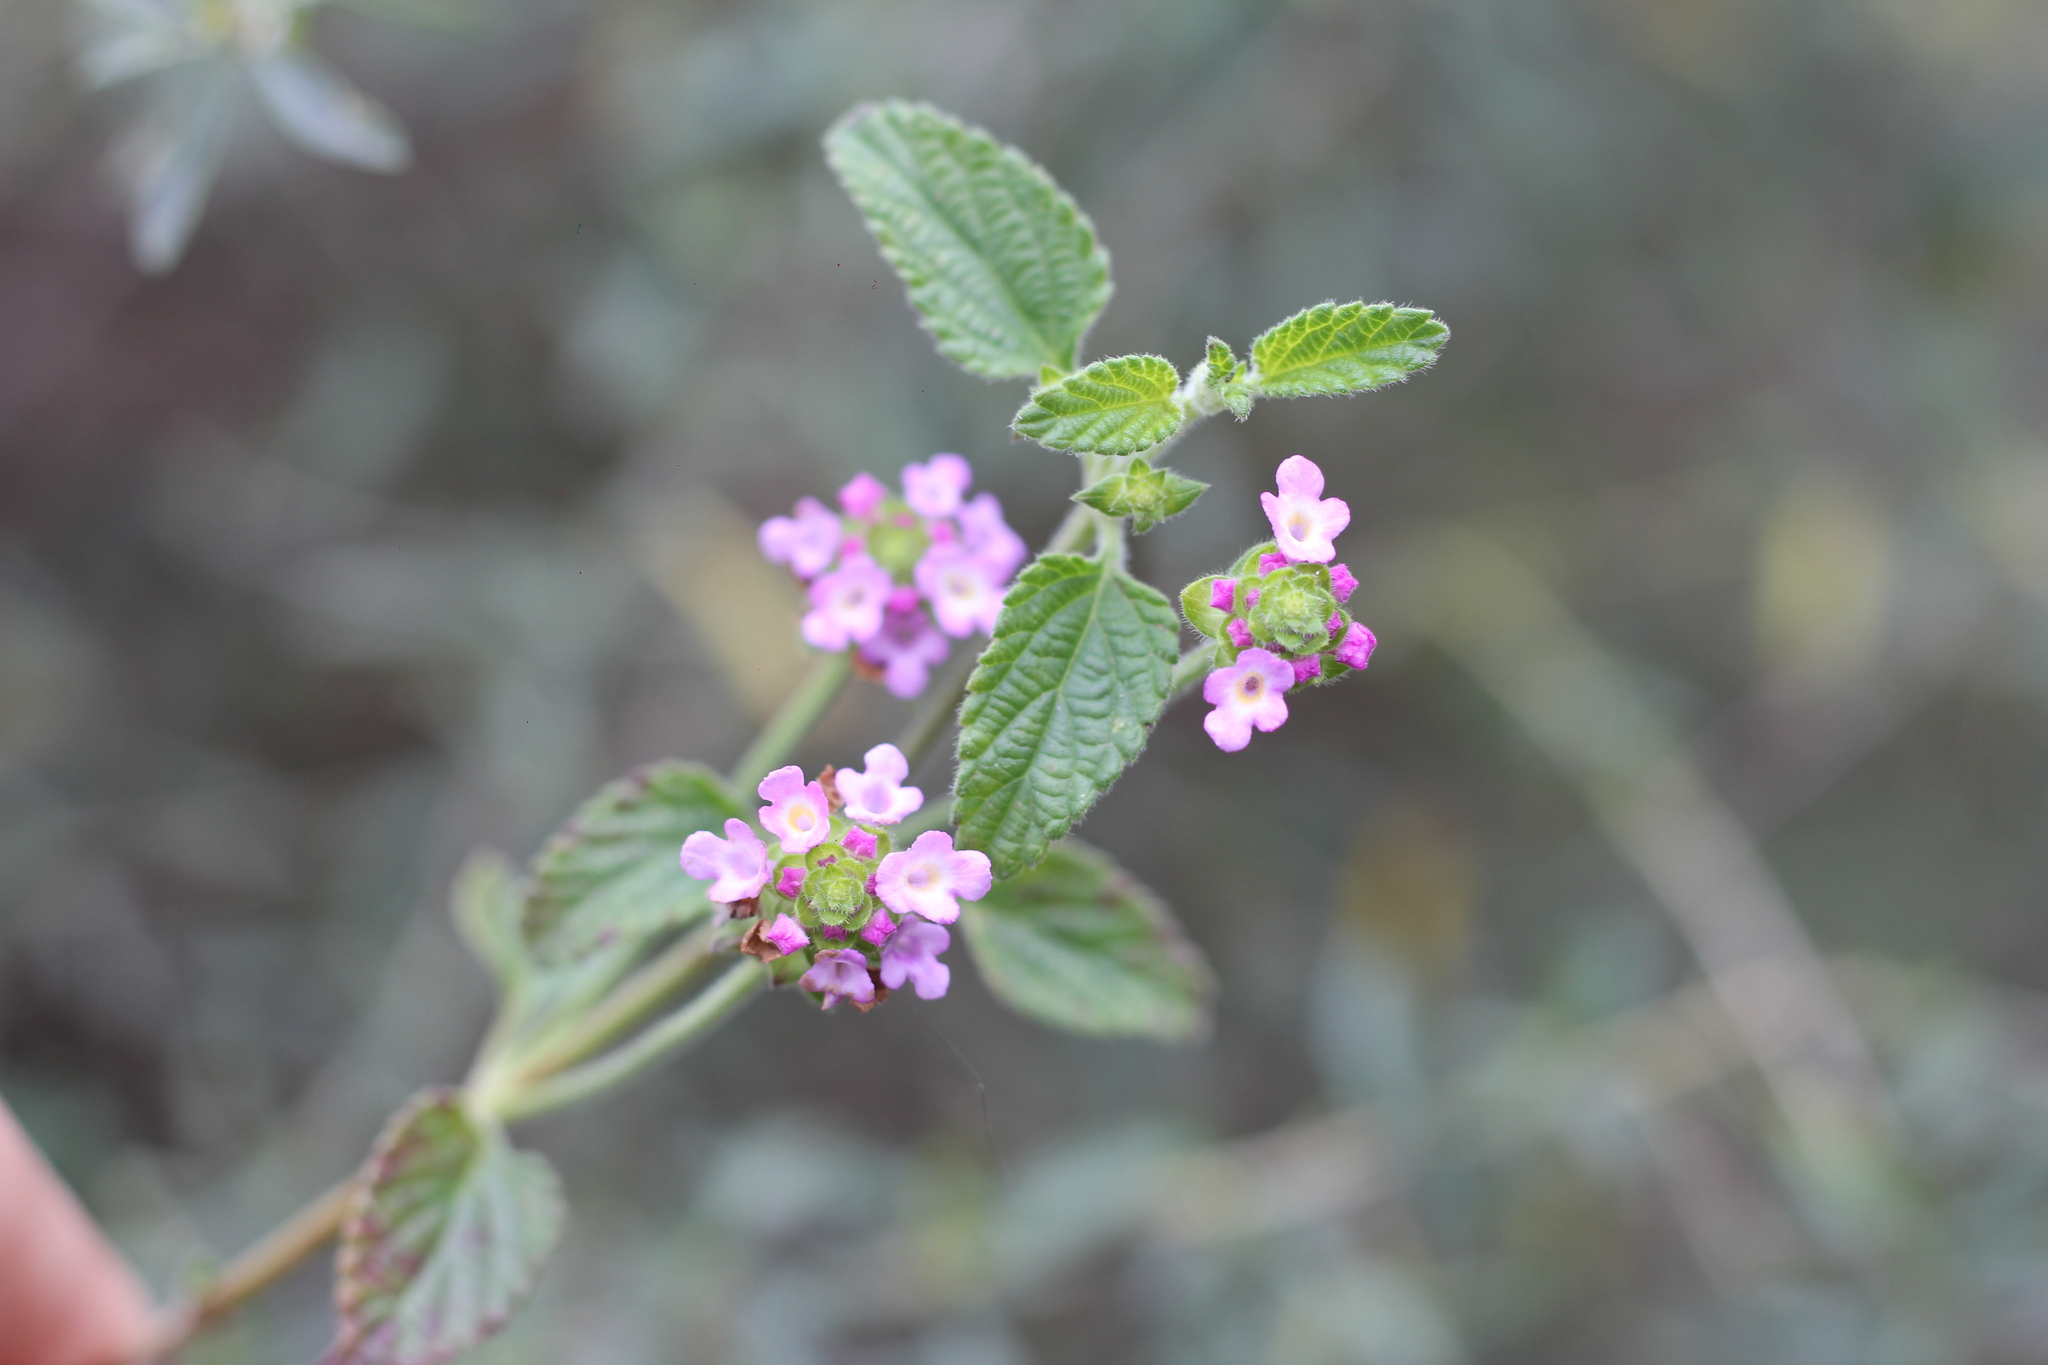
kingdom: Plantae
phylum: Tracheophyta
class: Magnoliopsida
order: Lamiales
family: Verbenaceae
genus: Lantana
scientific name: Lantana montevidensis
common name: Trailing shrubverbena
